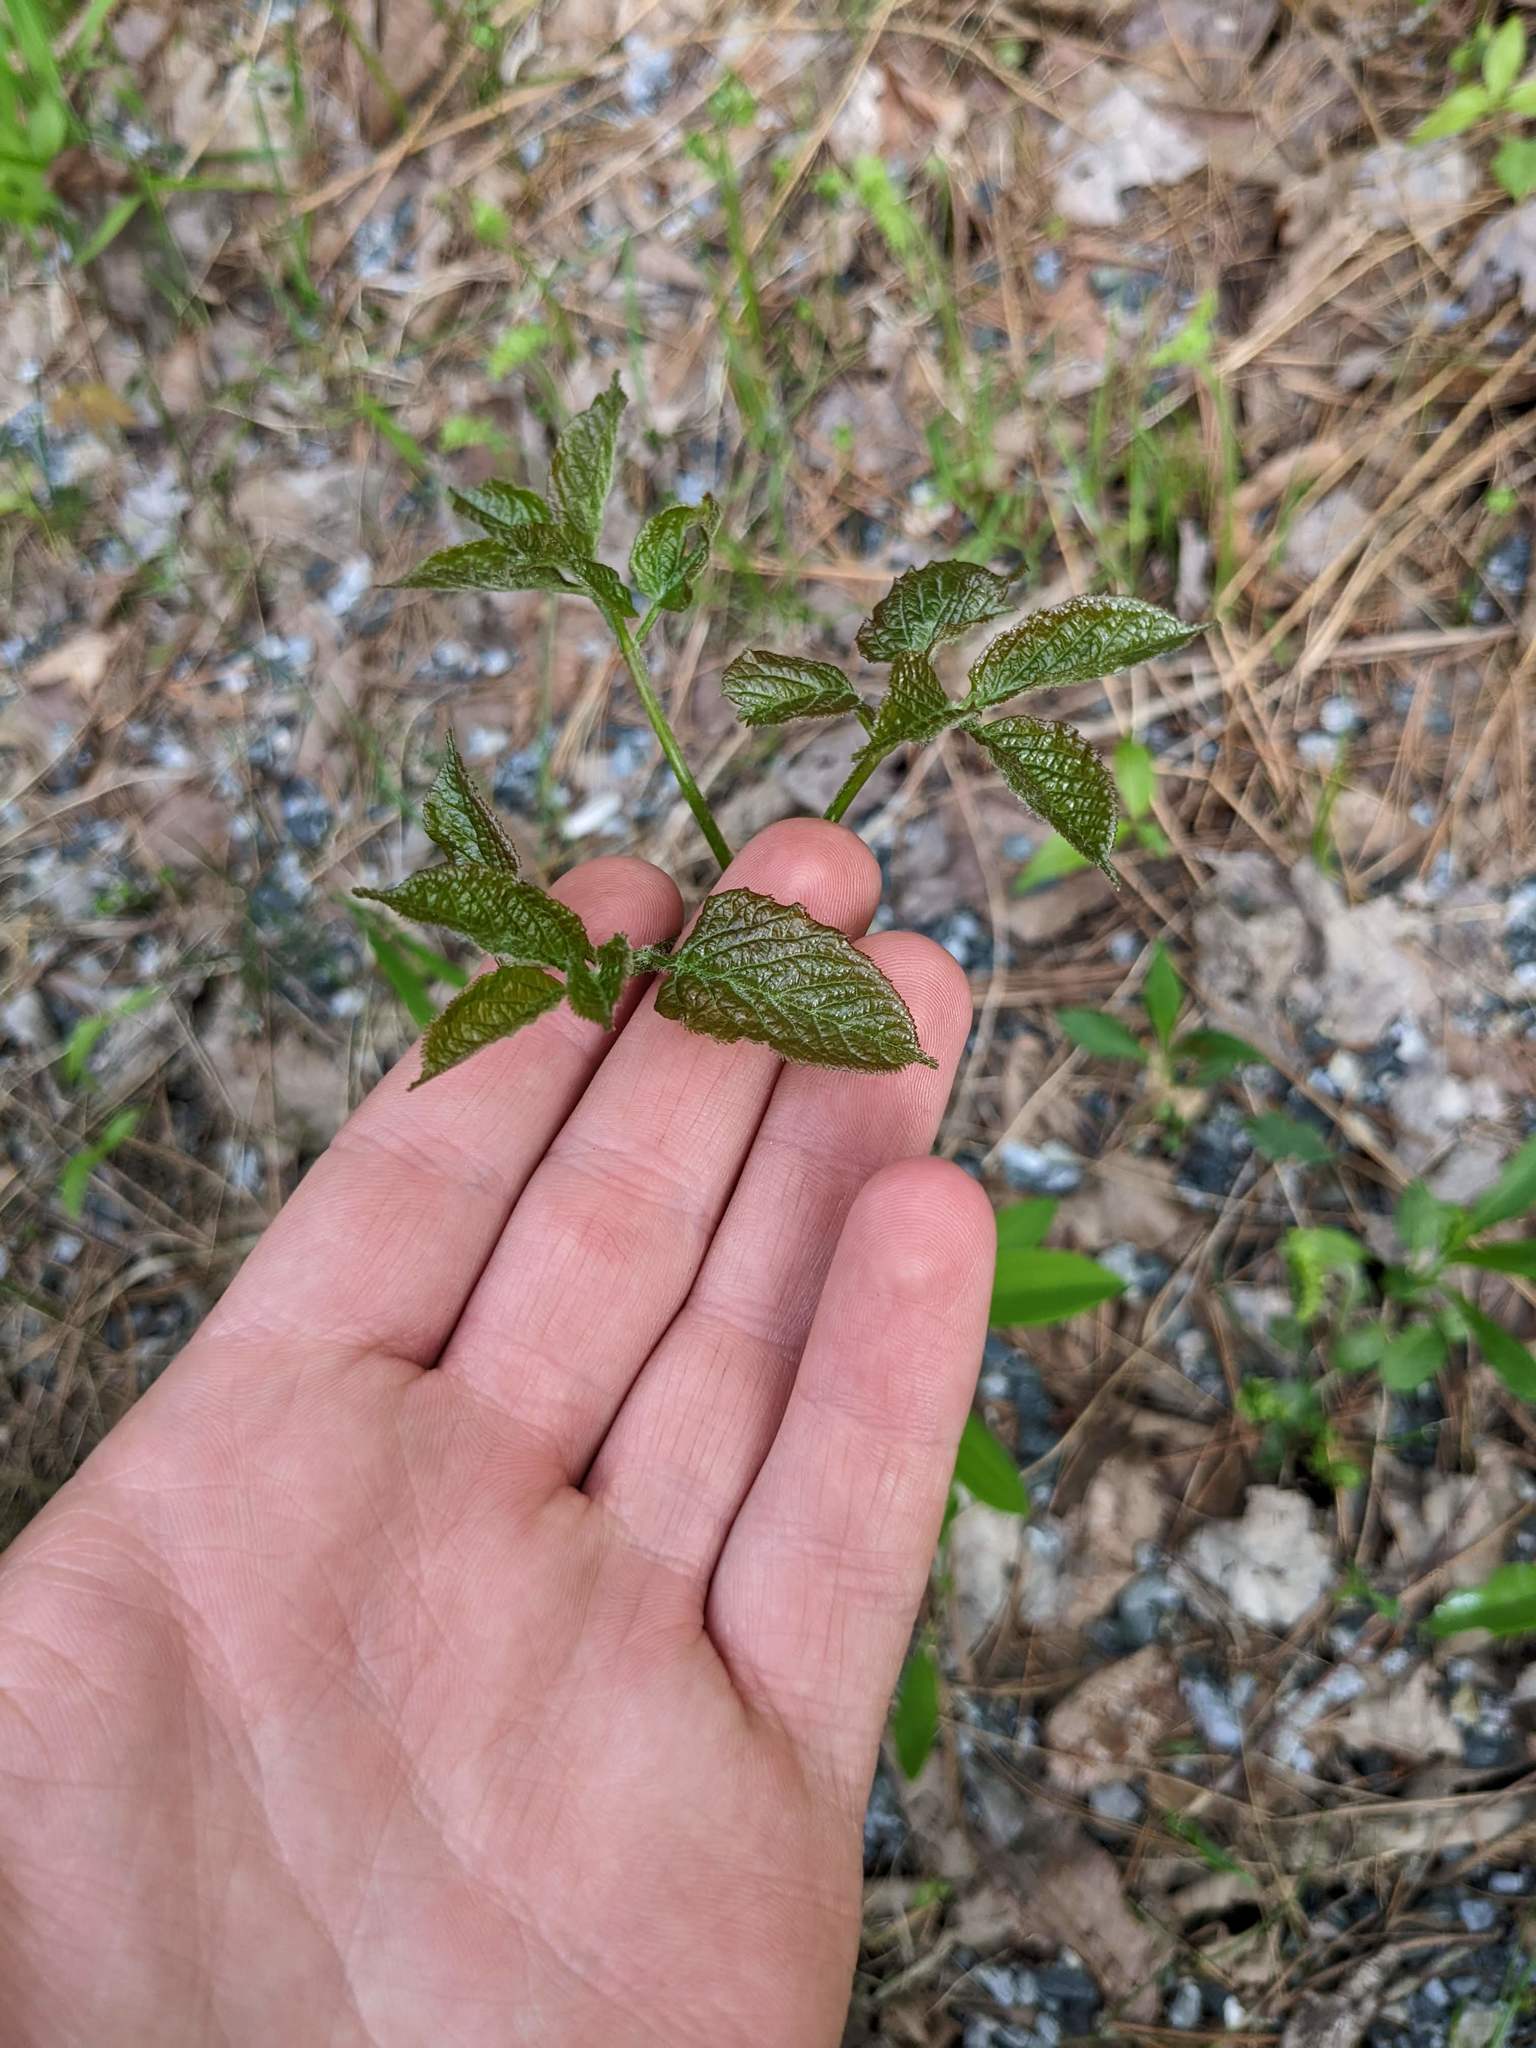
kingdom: Plantae
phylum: Tracheophyta
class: Magnoliopsida
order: Apiales
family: Araliaceae
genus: Aralia
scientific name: Aralia nudicaulis
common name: Wild sarsaparilla
